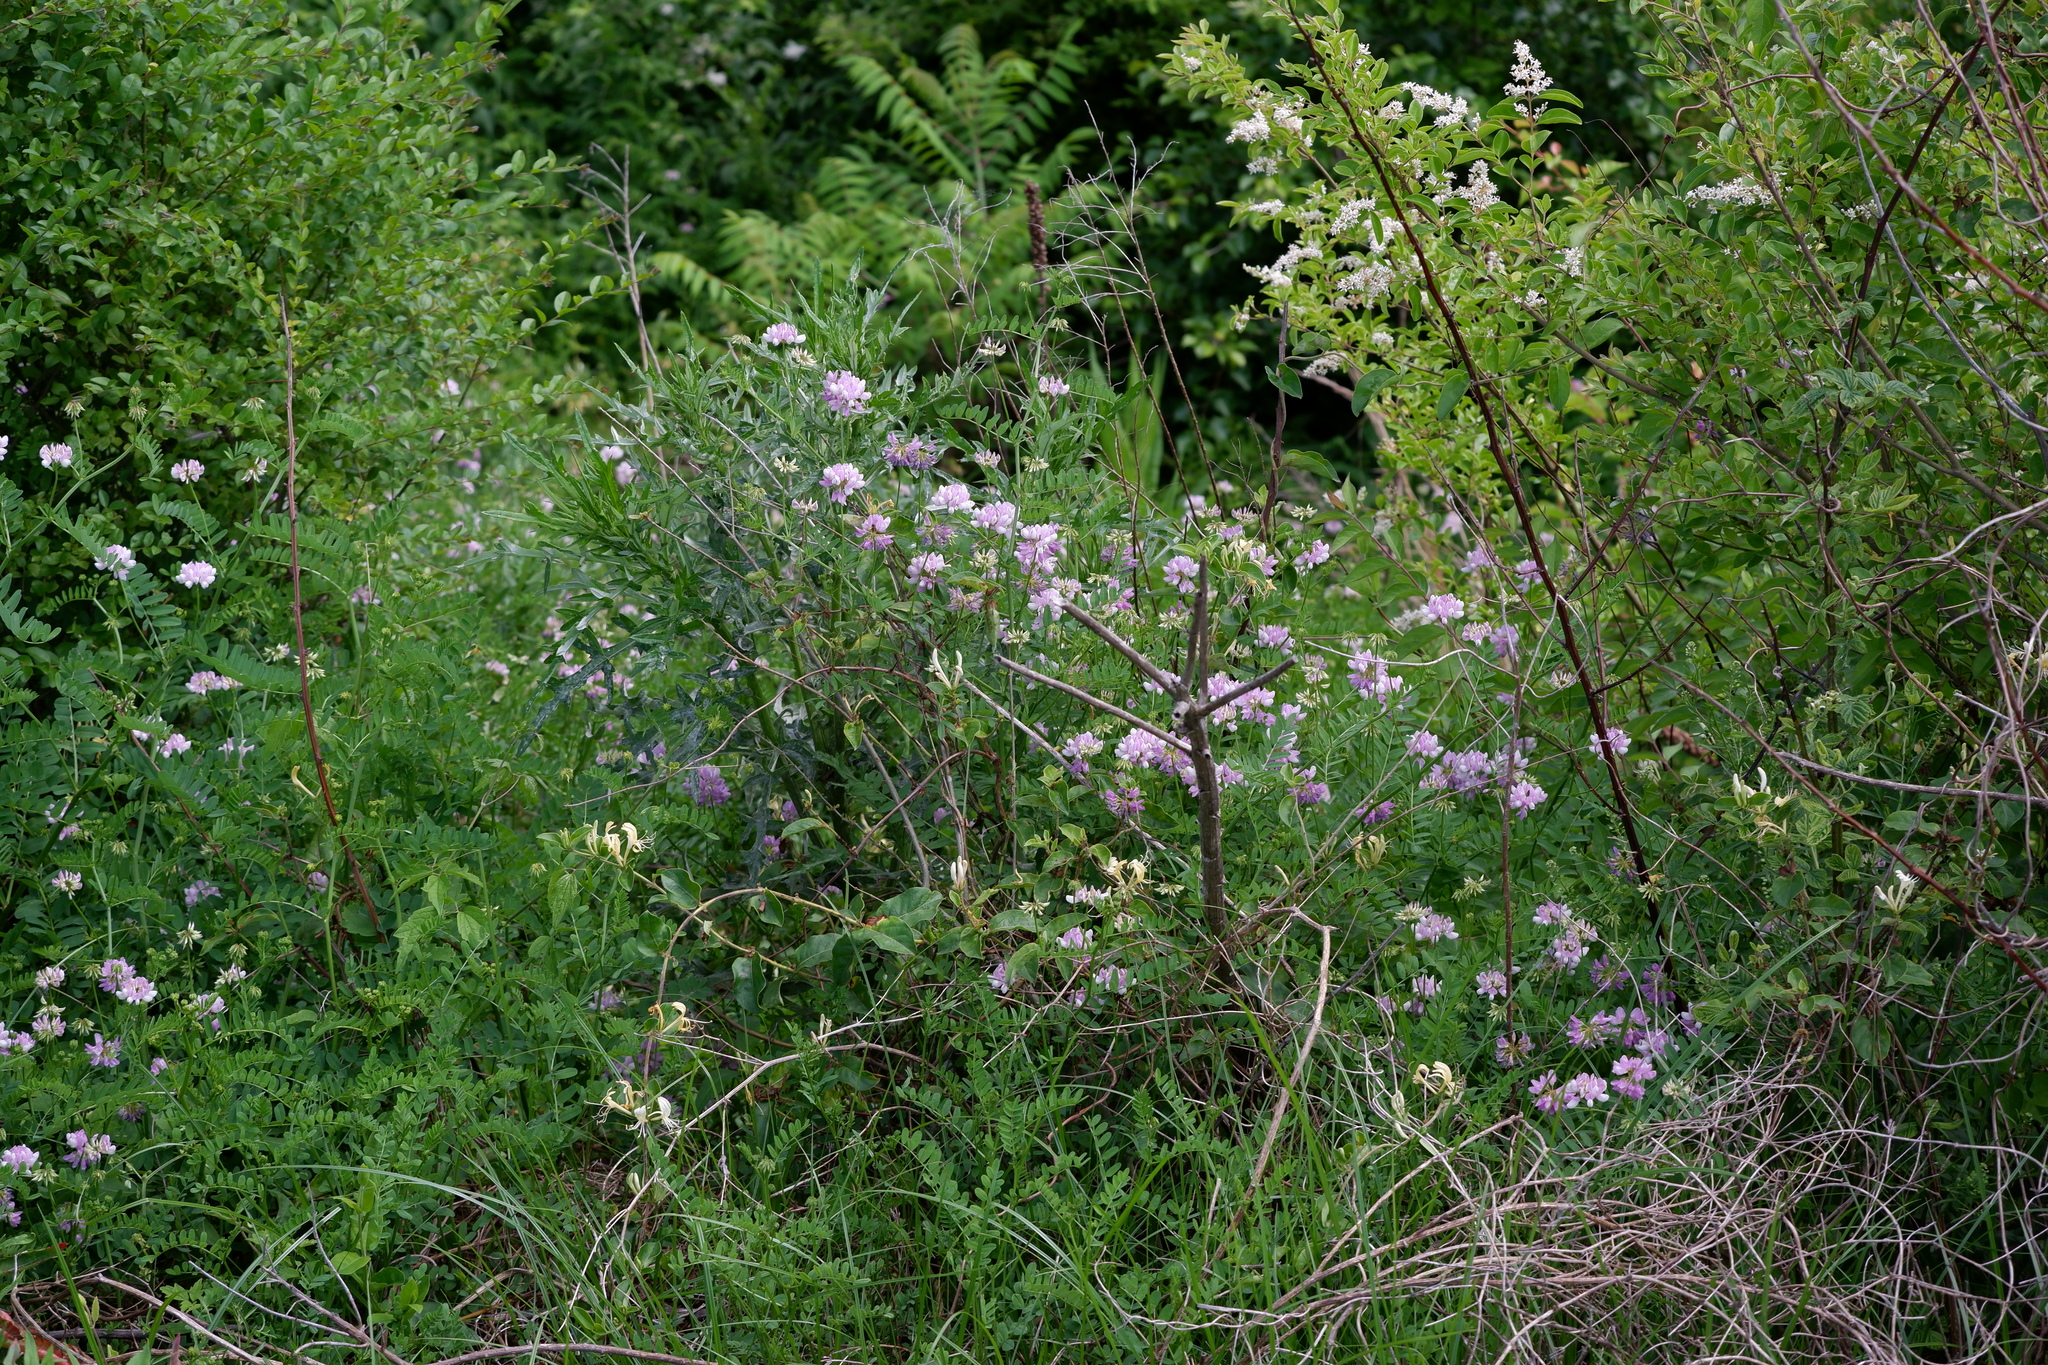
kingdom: Plantae
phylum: Tracheophyta
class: Magnoliopsida
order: Fabales
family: Fabaceae
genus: Coronilla
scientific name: Coronilla varia
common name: Crownvetch
